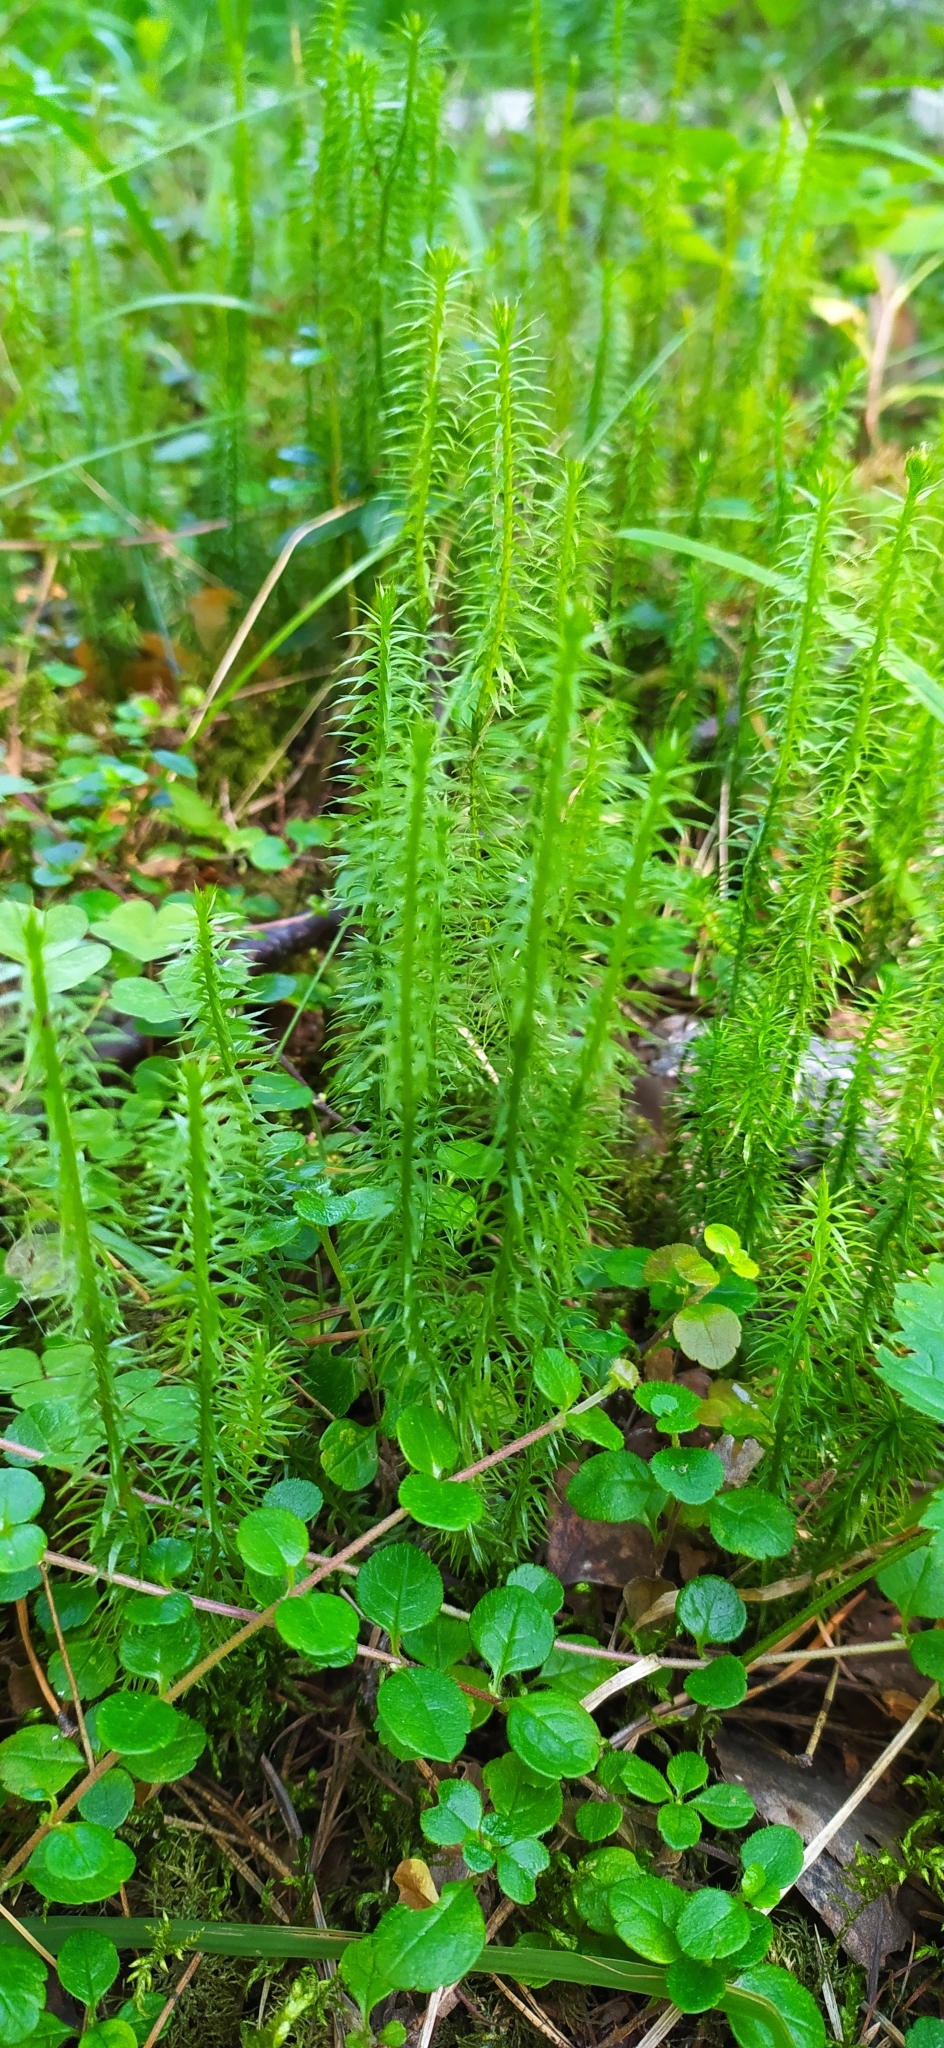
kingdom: Plantae
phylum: Tracheophyta
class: Lycopodiopsida
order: Lycopodiales
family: Lycopodiaceae
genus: Spinulum
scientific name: Spinulum annotinum
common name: Interrupted club-moss
